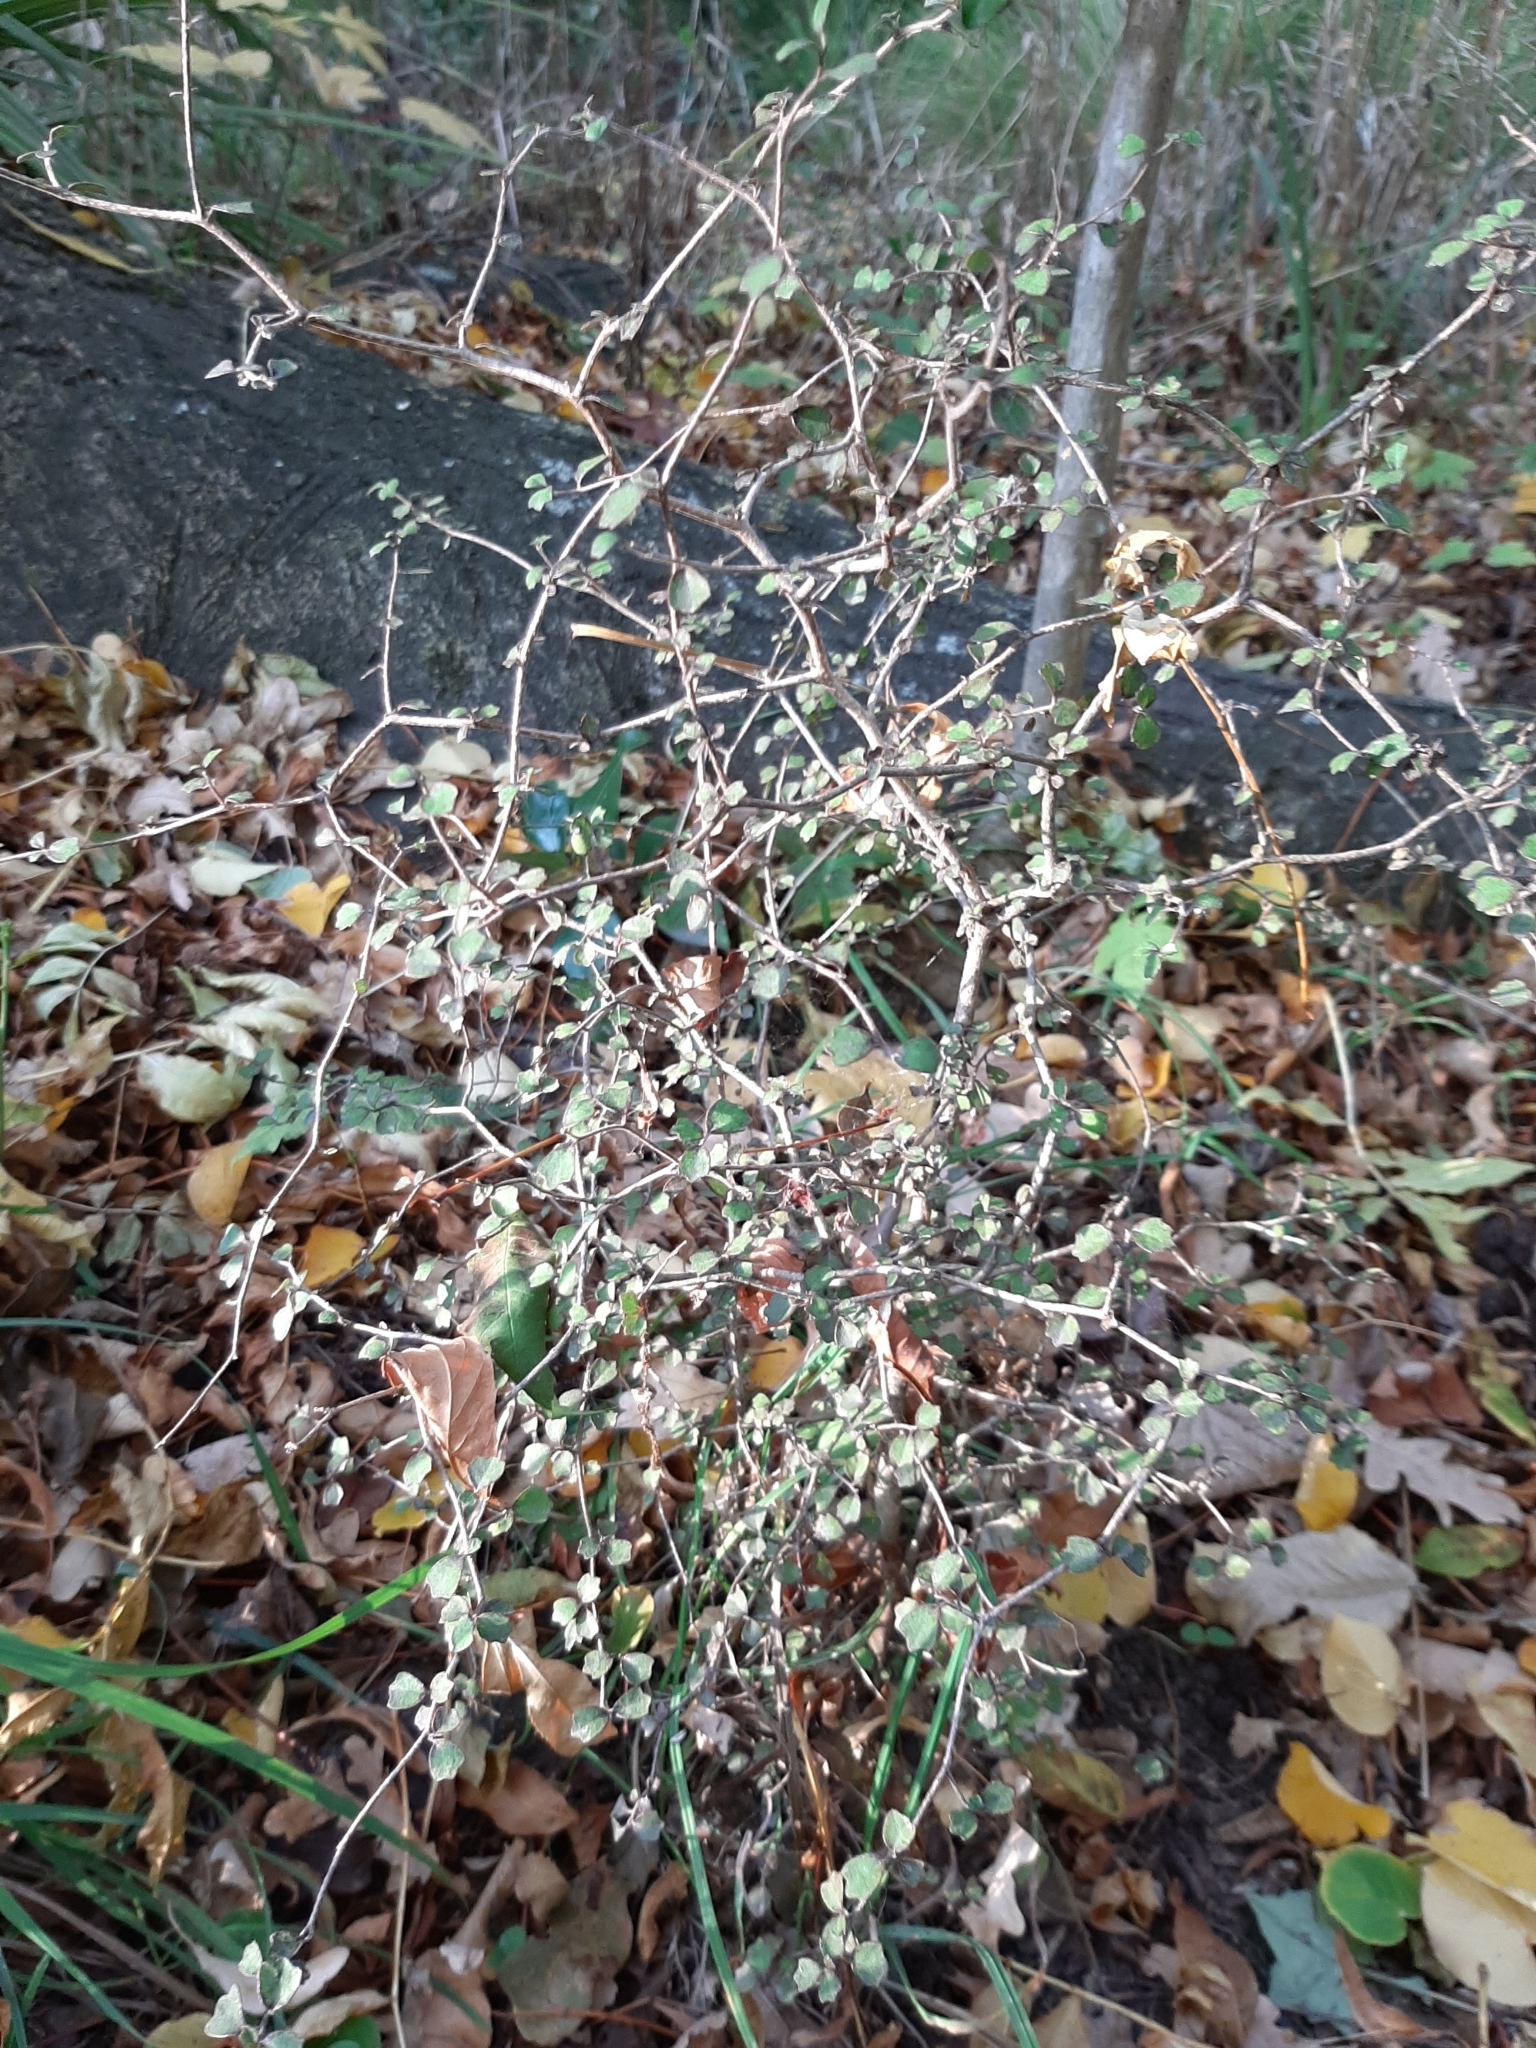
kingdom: Plantae
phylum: Tracheophyta
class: Magnoliopsida
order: Apiales
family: Pennantiaceae
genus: Pennantia
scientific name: Pennantia corymbosa
